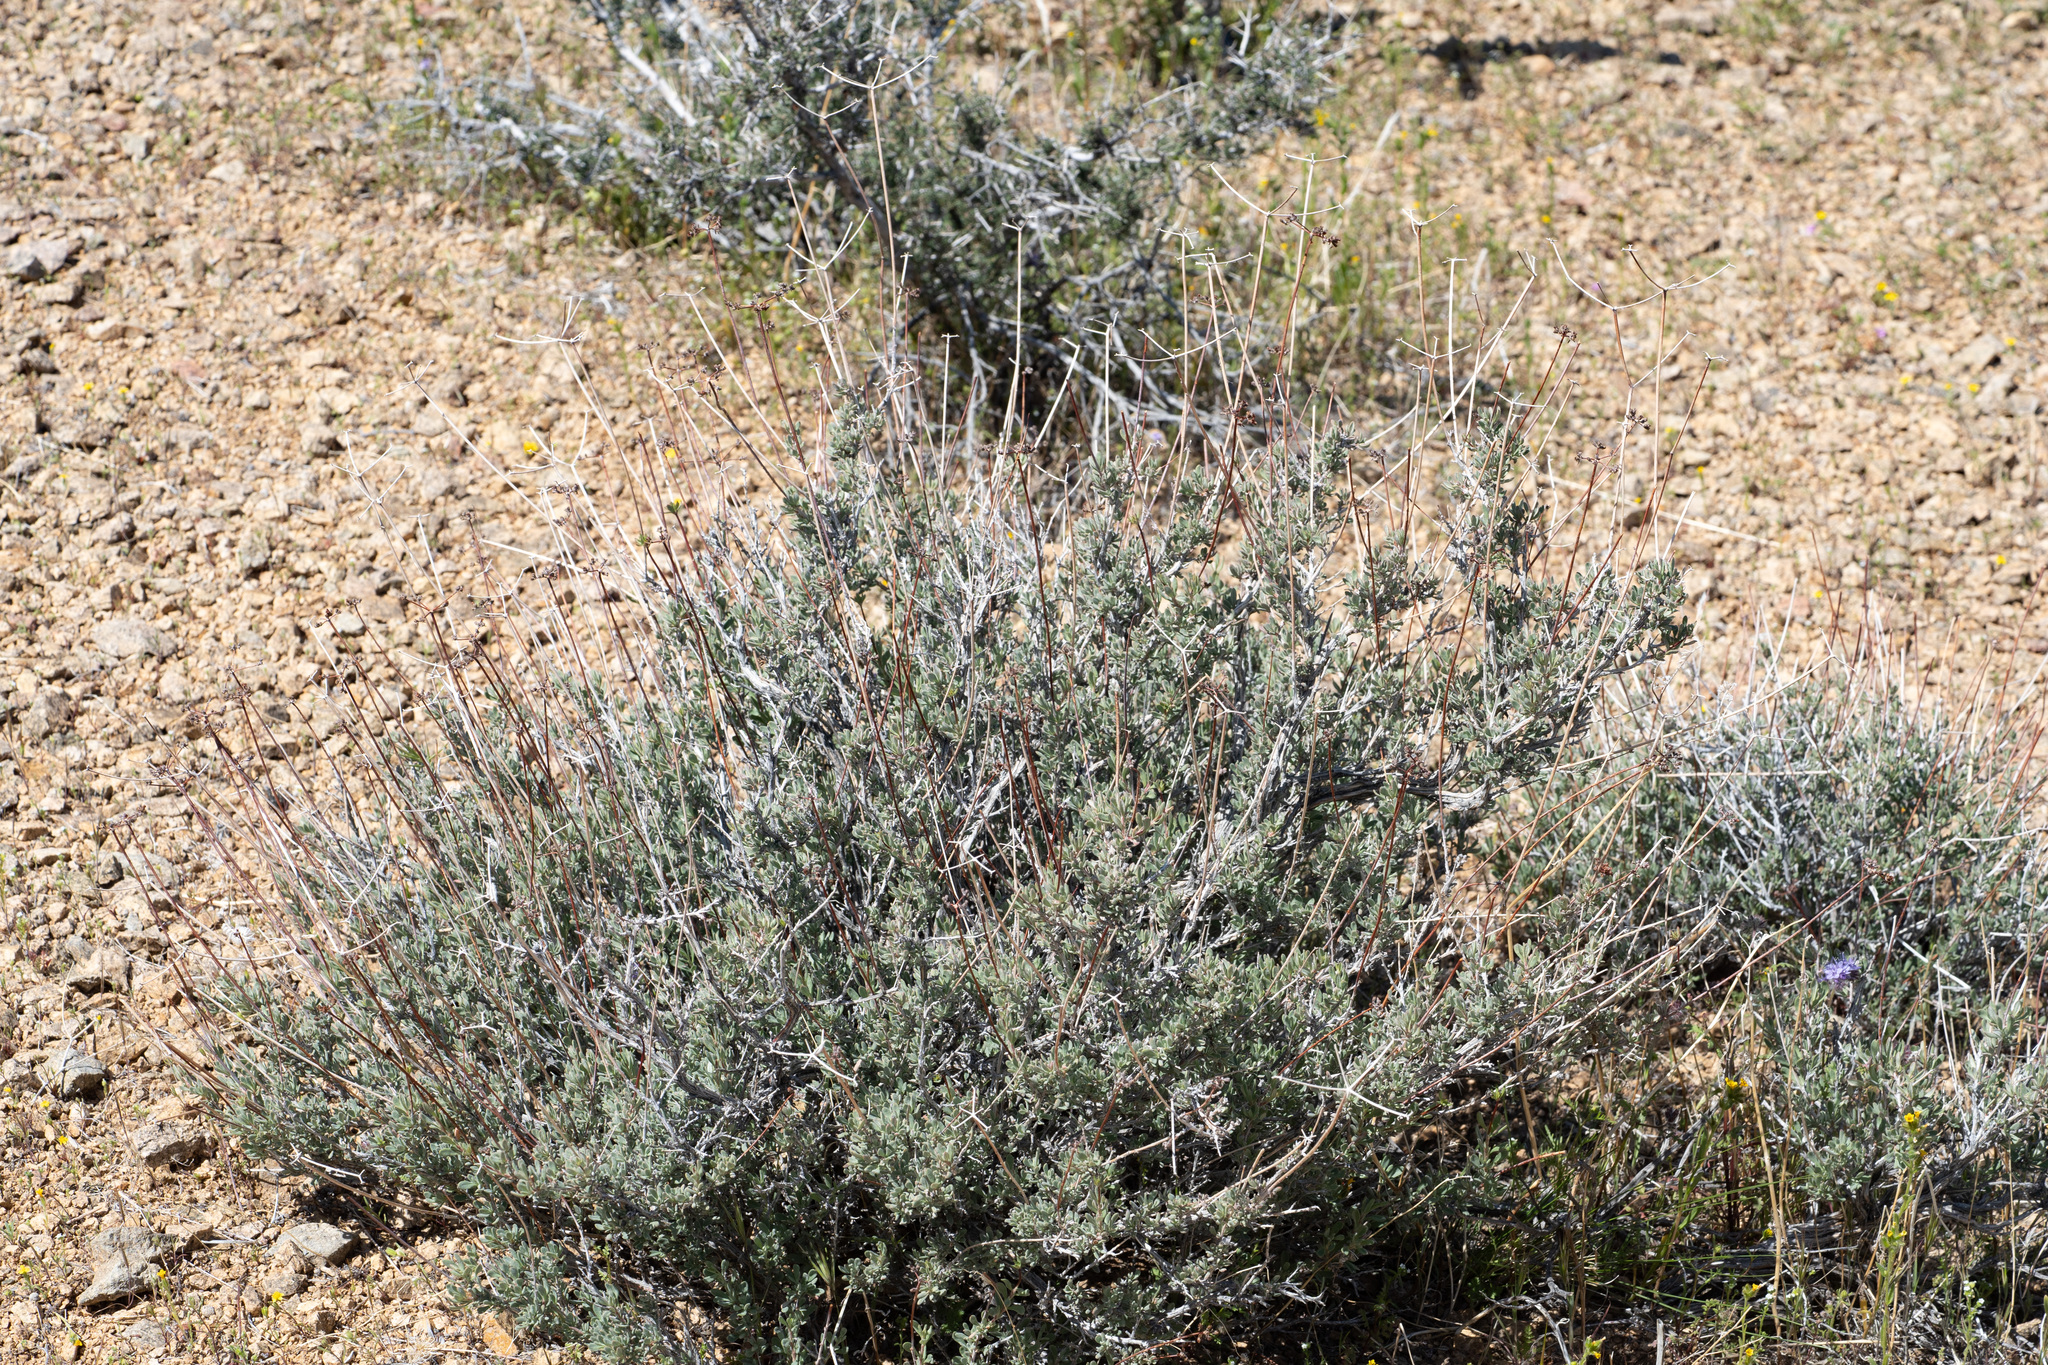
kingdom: Plantae
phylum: Tracheophyta
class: Magnoliopsida
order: Caryophyllales
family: Polygonaceae
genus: Eriogonum
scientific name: Eriogonum fasciculatum
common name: California wild buckwheat
